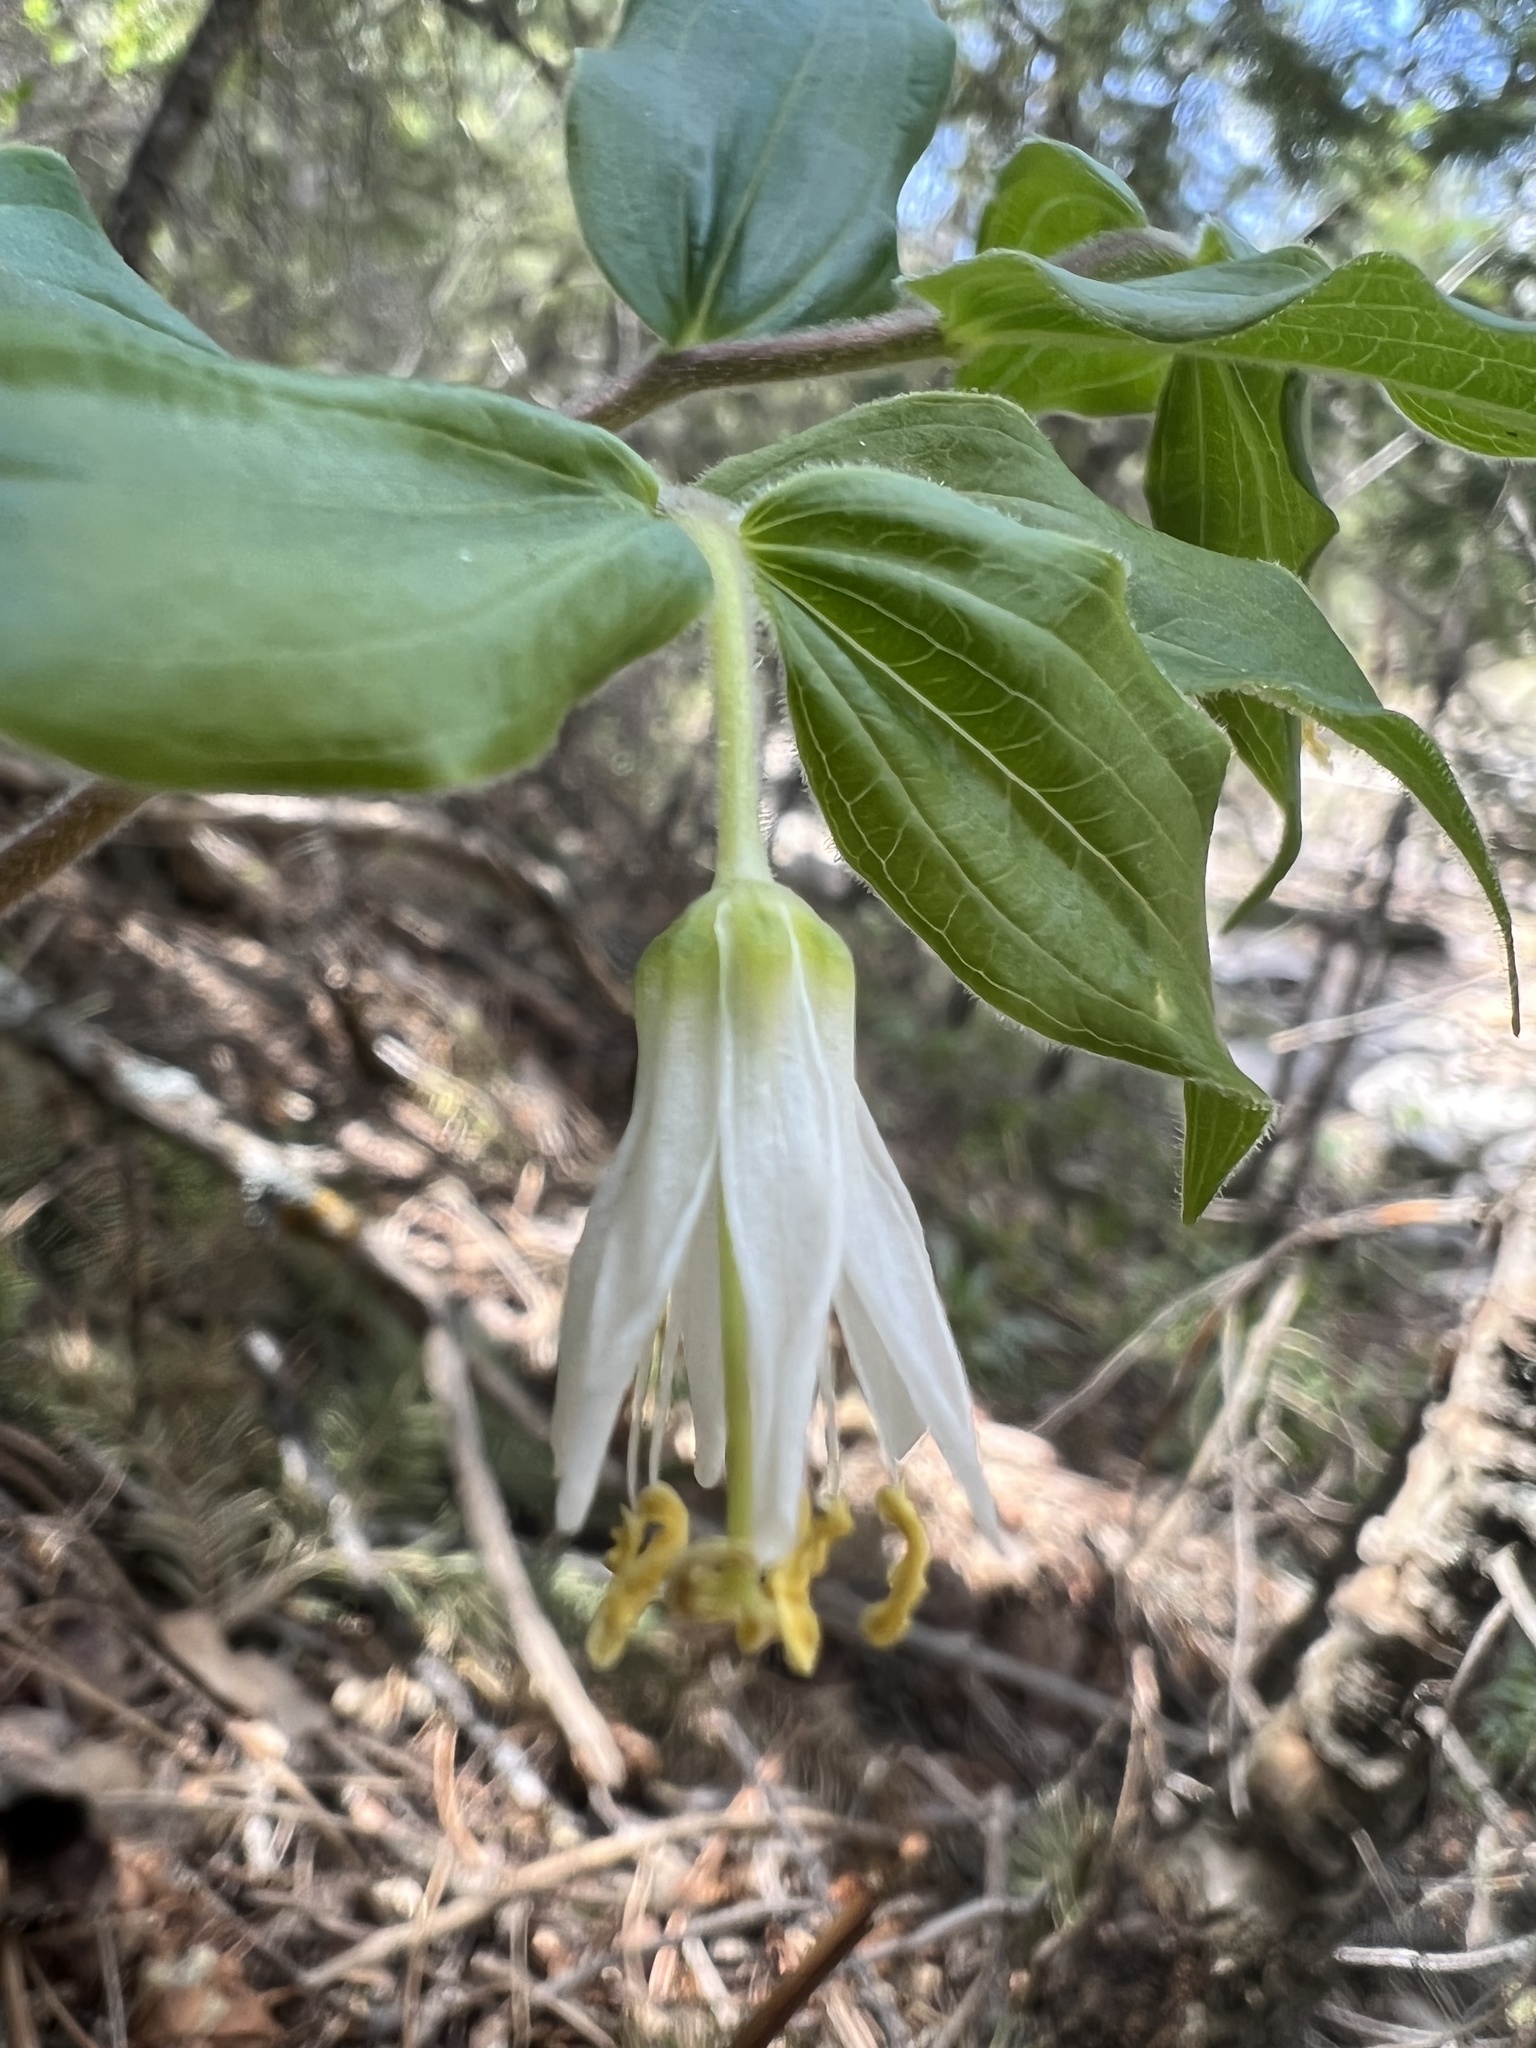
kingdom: Plantae
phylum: Tracheophyta
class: Liliopsida
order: Liliales
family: Liliaceae
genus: Prosartes
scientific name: Prosartes trachycarpa
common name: Rough-fruit fairy-bells
